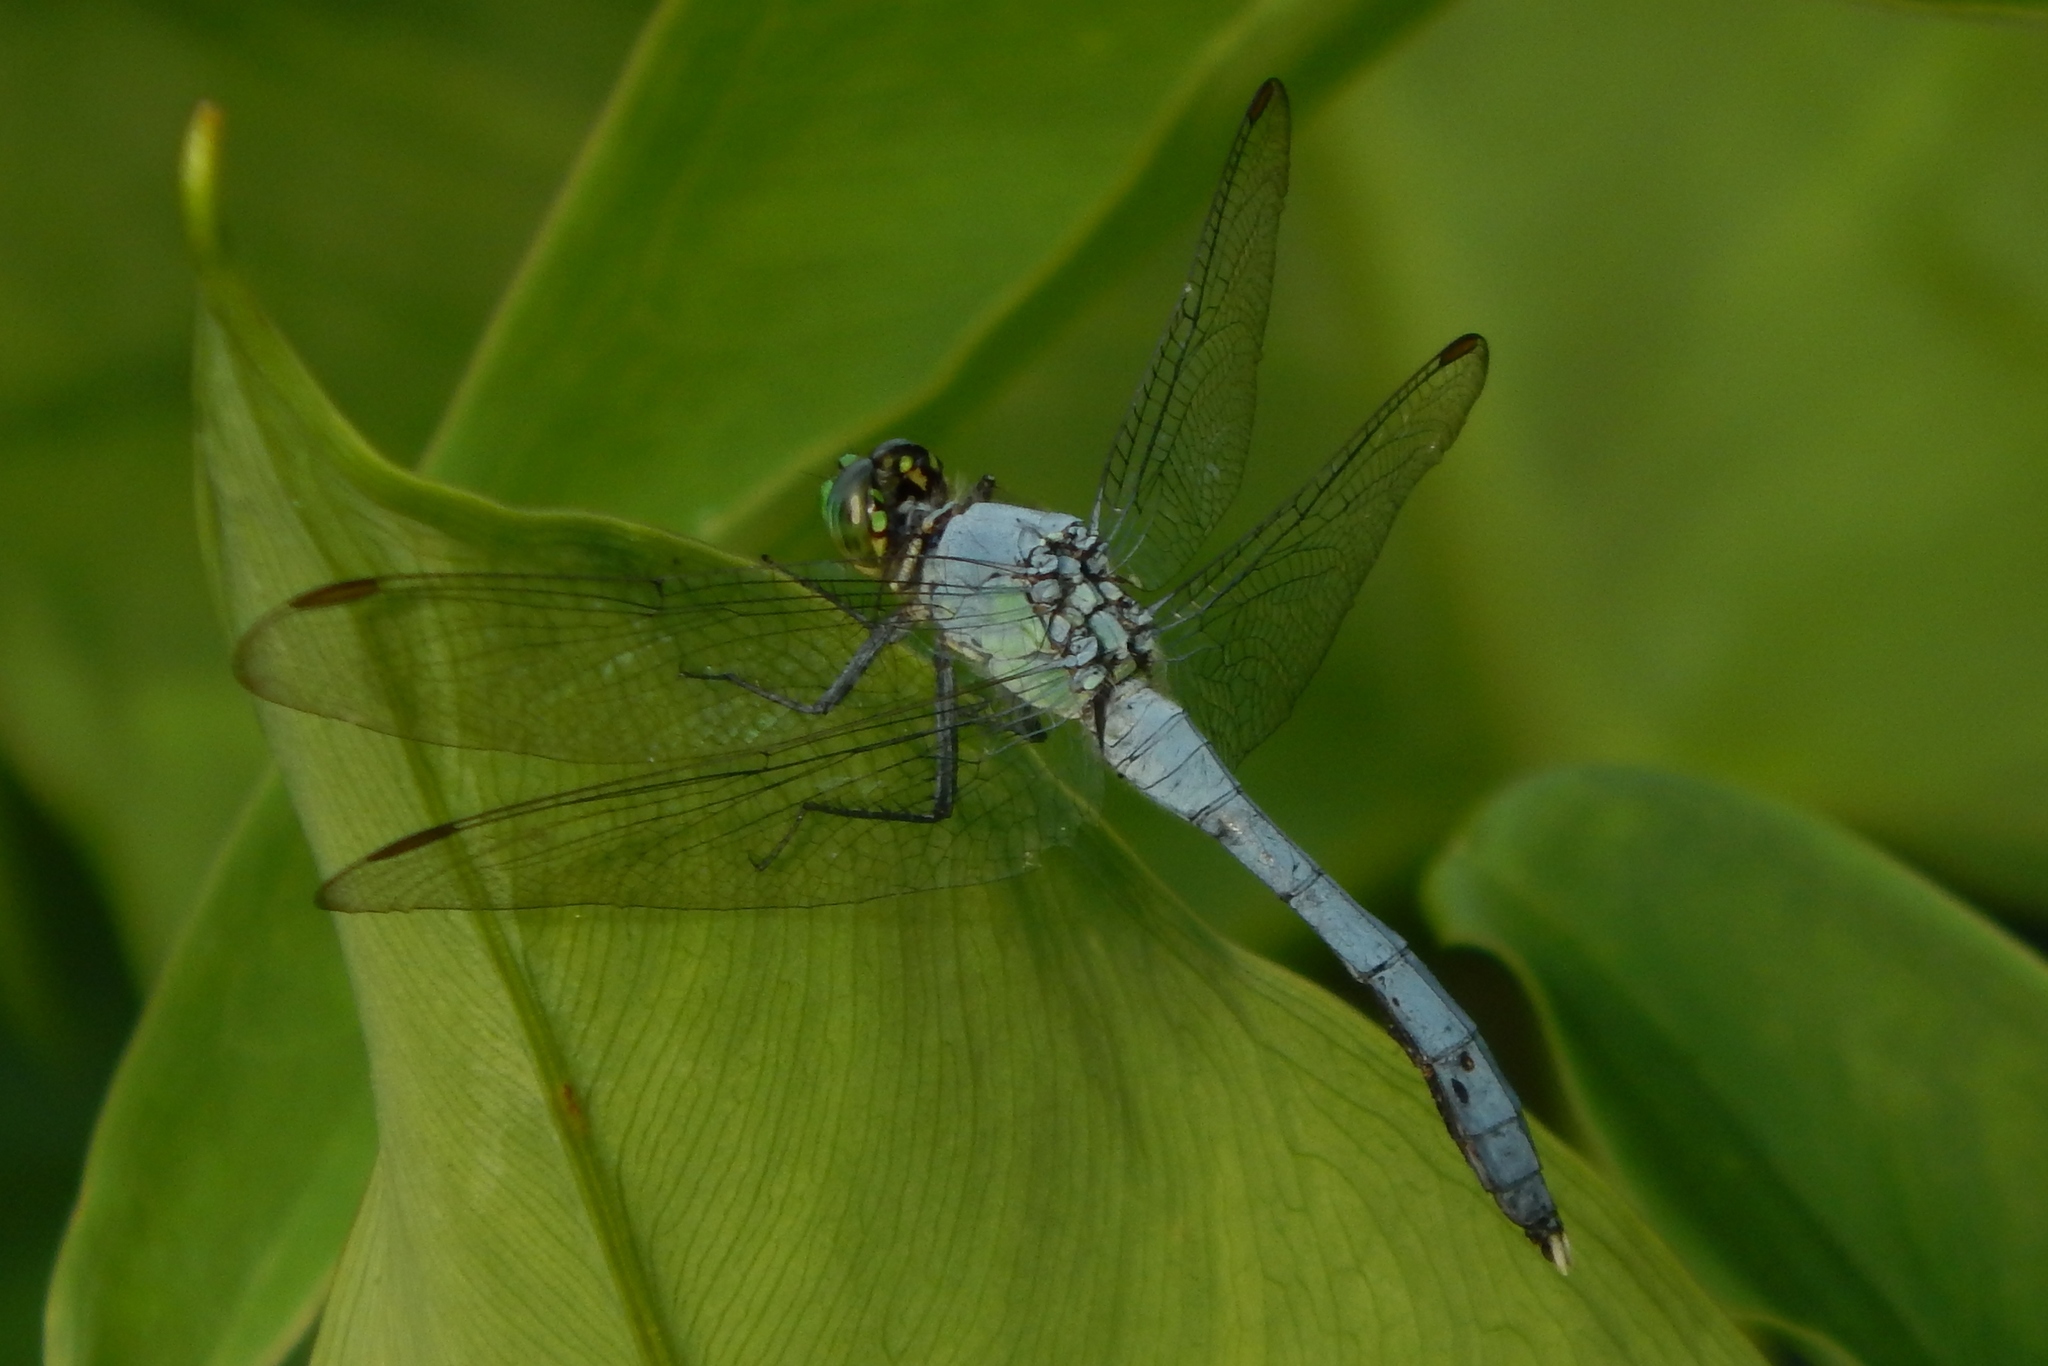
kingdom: Animalia
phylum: Arthropoda
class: Insecta
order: Odonata
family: Libellulidae
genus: Erythemis
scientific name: Erythemis simplicicollis
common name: Eastern pondhawk
